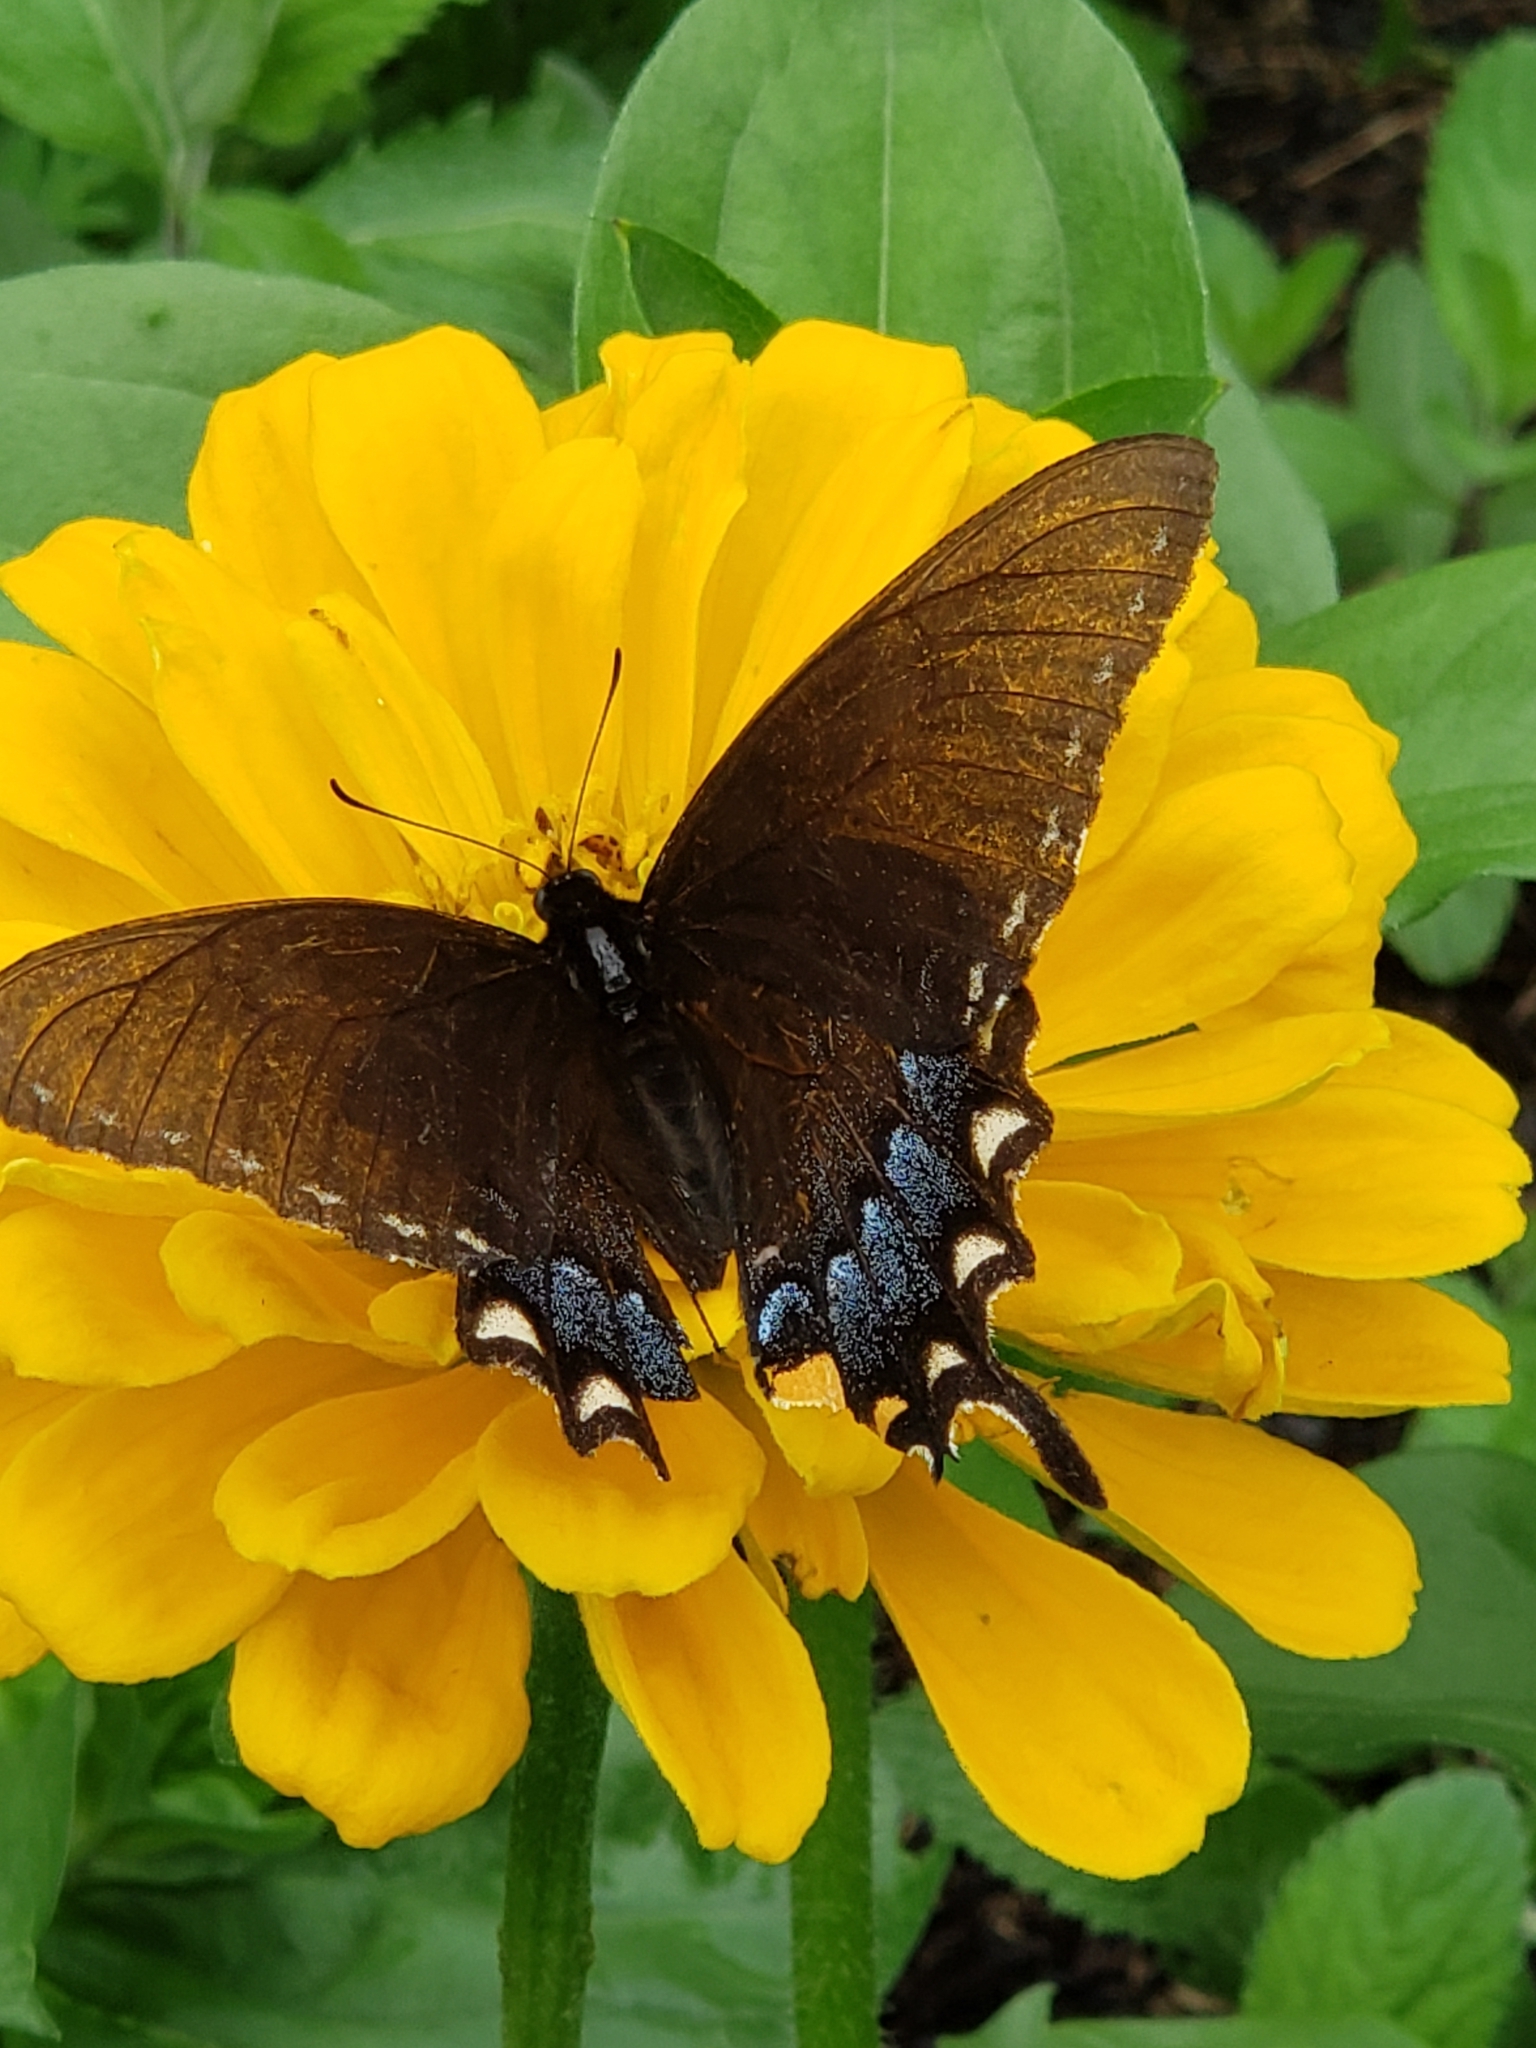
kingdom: Animalia
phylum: Arthropoda
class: Insecta
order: Lepidoptera
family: Papilionidae
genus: Papilio
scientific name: Papilio glaucus
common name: Tiger swallowtail
